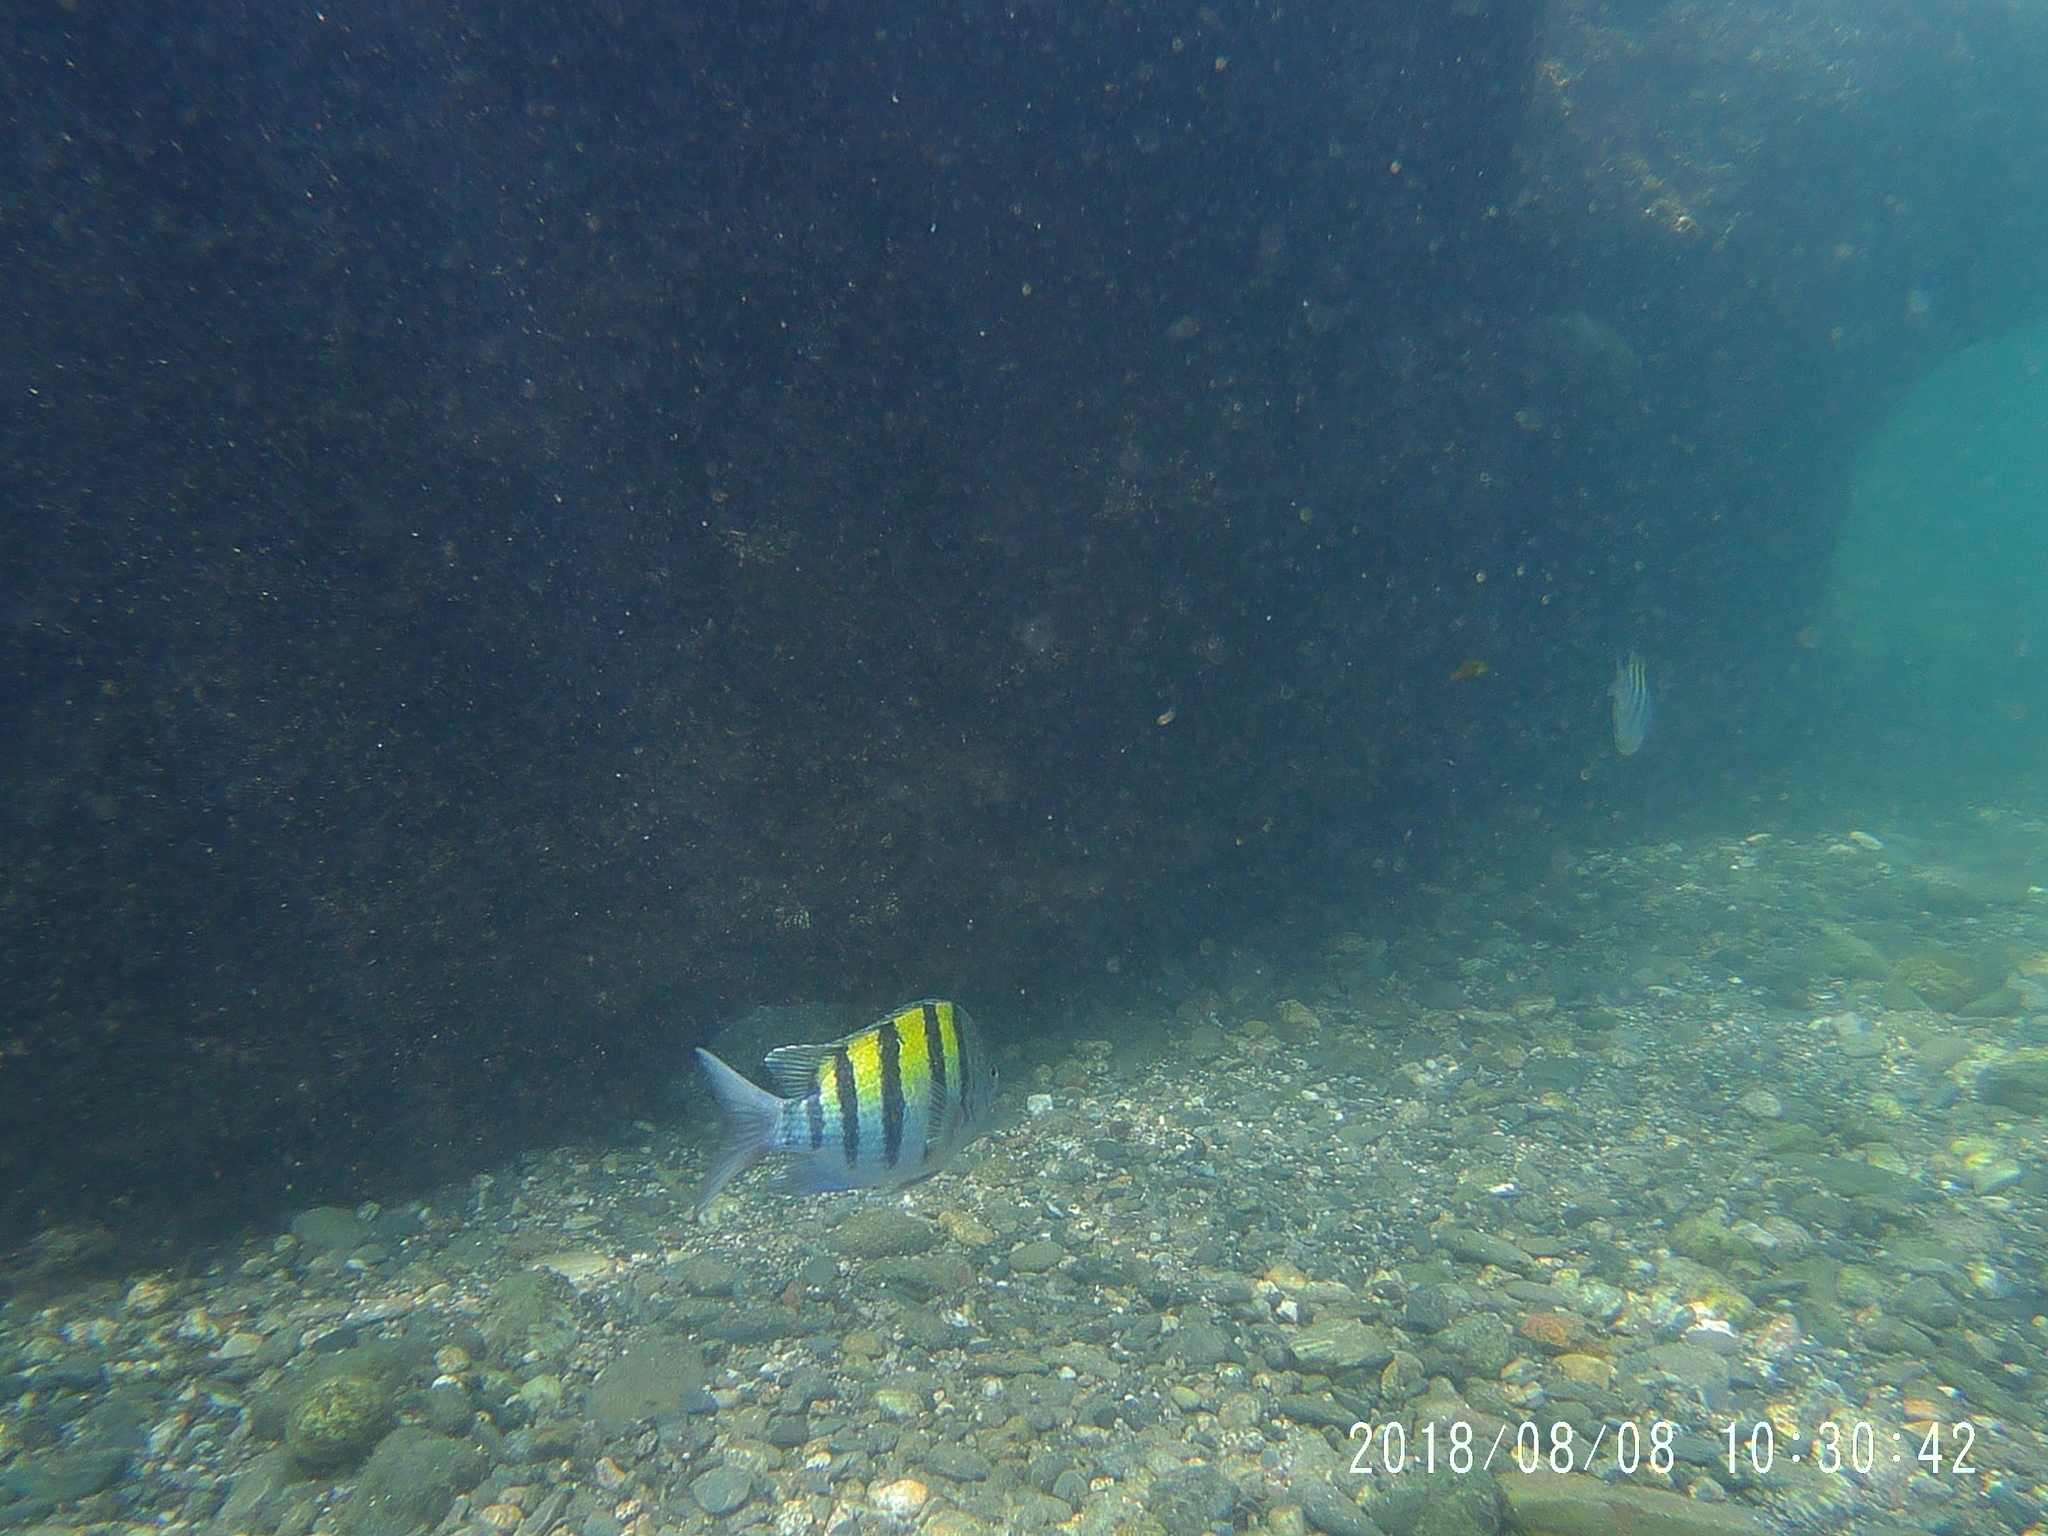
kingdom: Animalia
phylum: Chordata
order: Perciformes
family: Pomacentridae
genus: Abudefduf
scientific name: Abudefduf troschelii
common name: Panamic sergeant major
